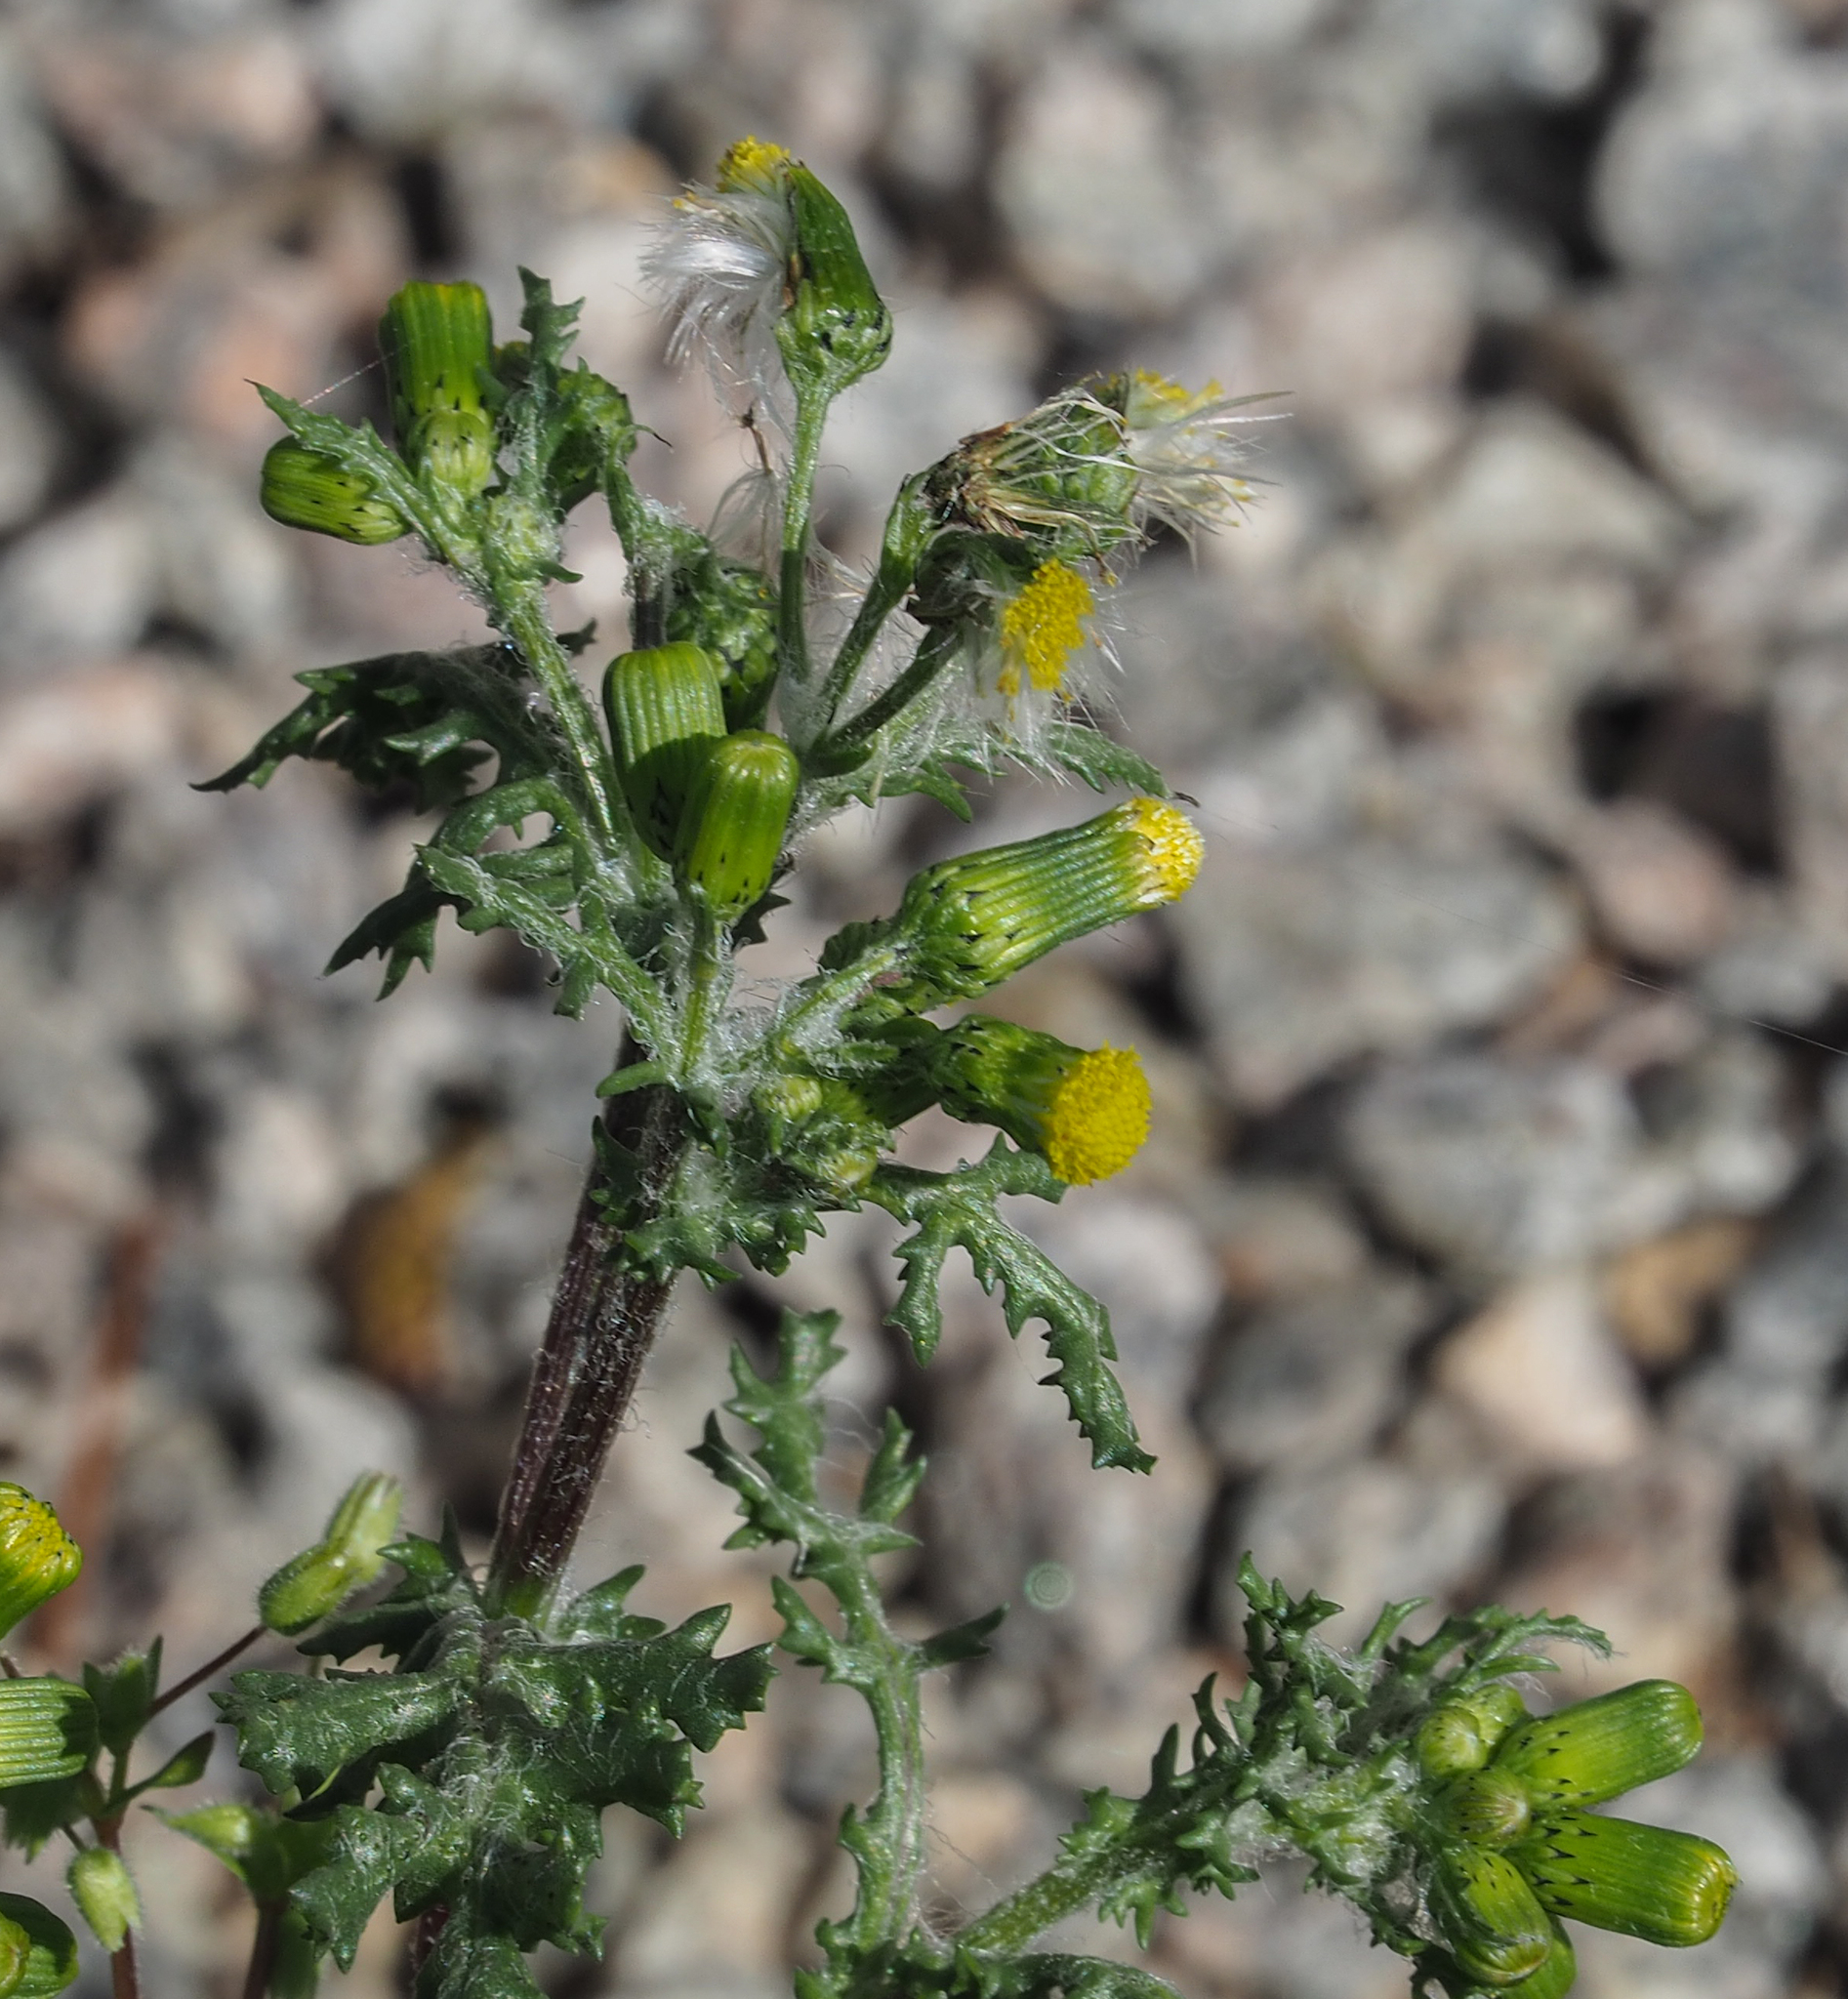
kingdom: Plantae
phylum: Tracheophyta
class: Magnoliopsida
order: Asterales
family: Asteraceae
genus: Senecio
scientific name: Senecio vulgaris
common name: Old-man-in-the-spring
